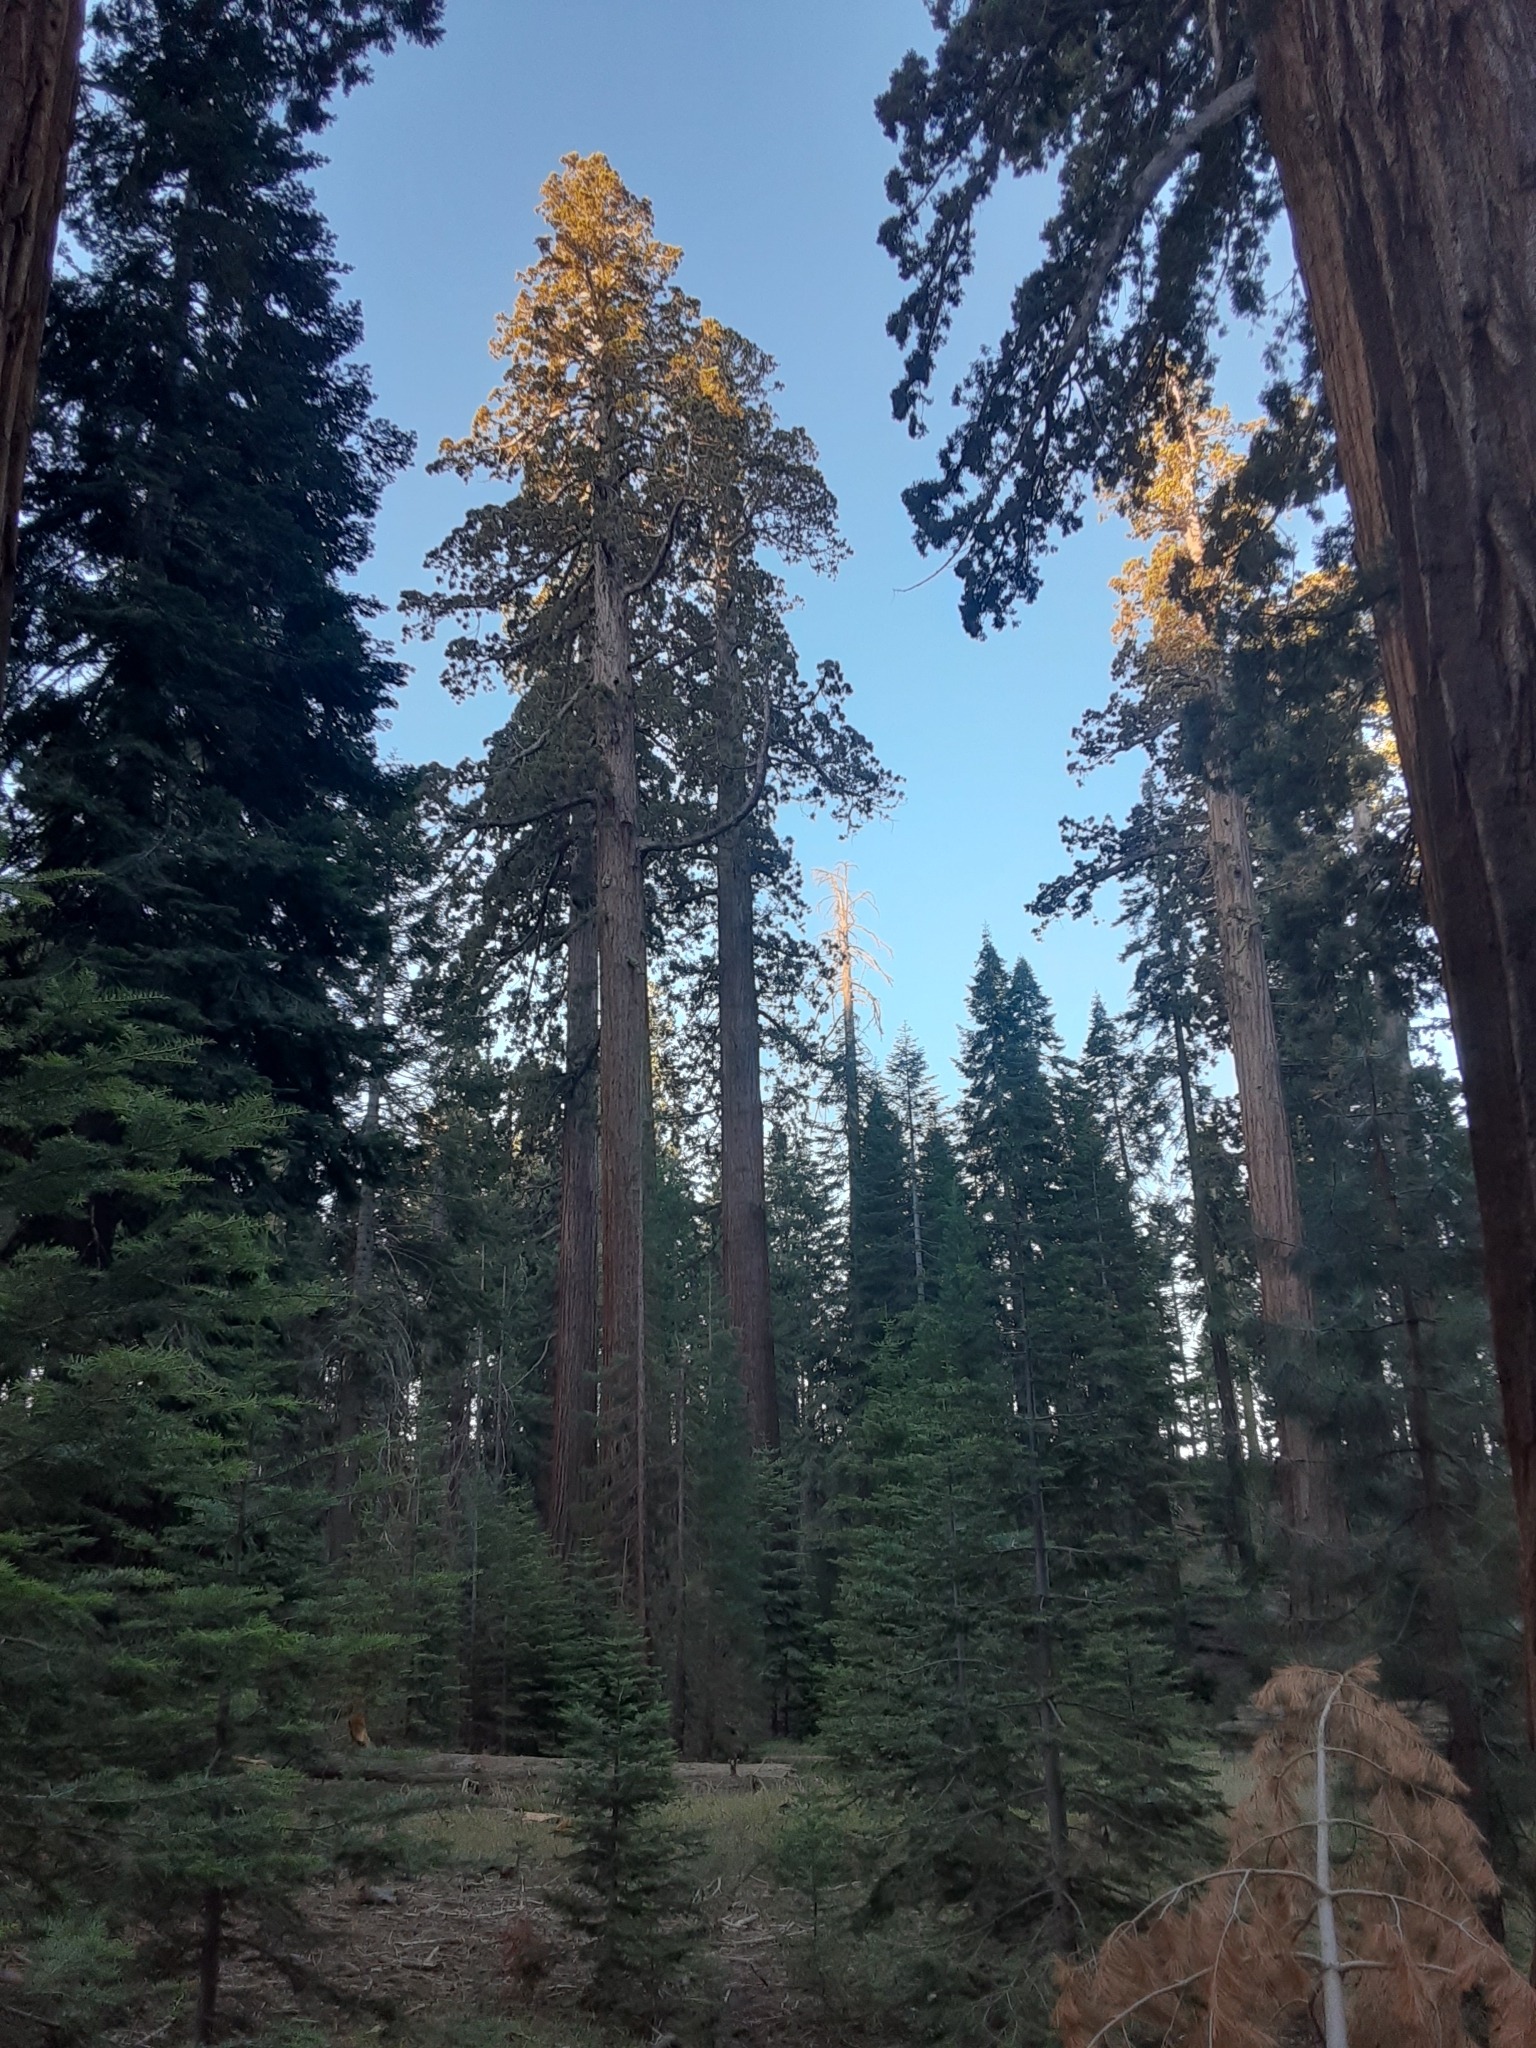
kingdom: Plantae
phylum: Tracheophyta
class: Pinopsida
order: Pinales
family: Cupressaceae
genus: Sequoiadendron
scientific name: Sequoiadendron giganteum
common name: Wellingtonia
